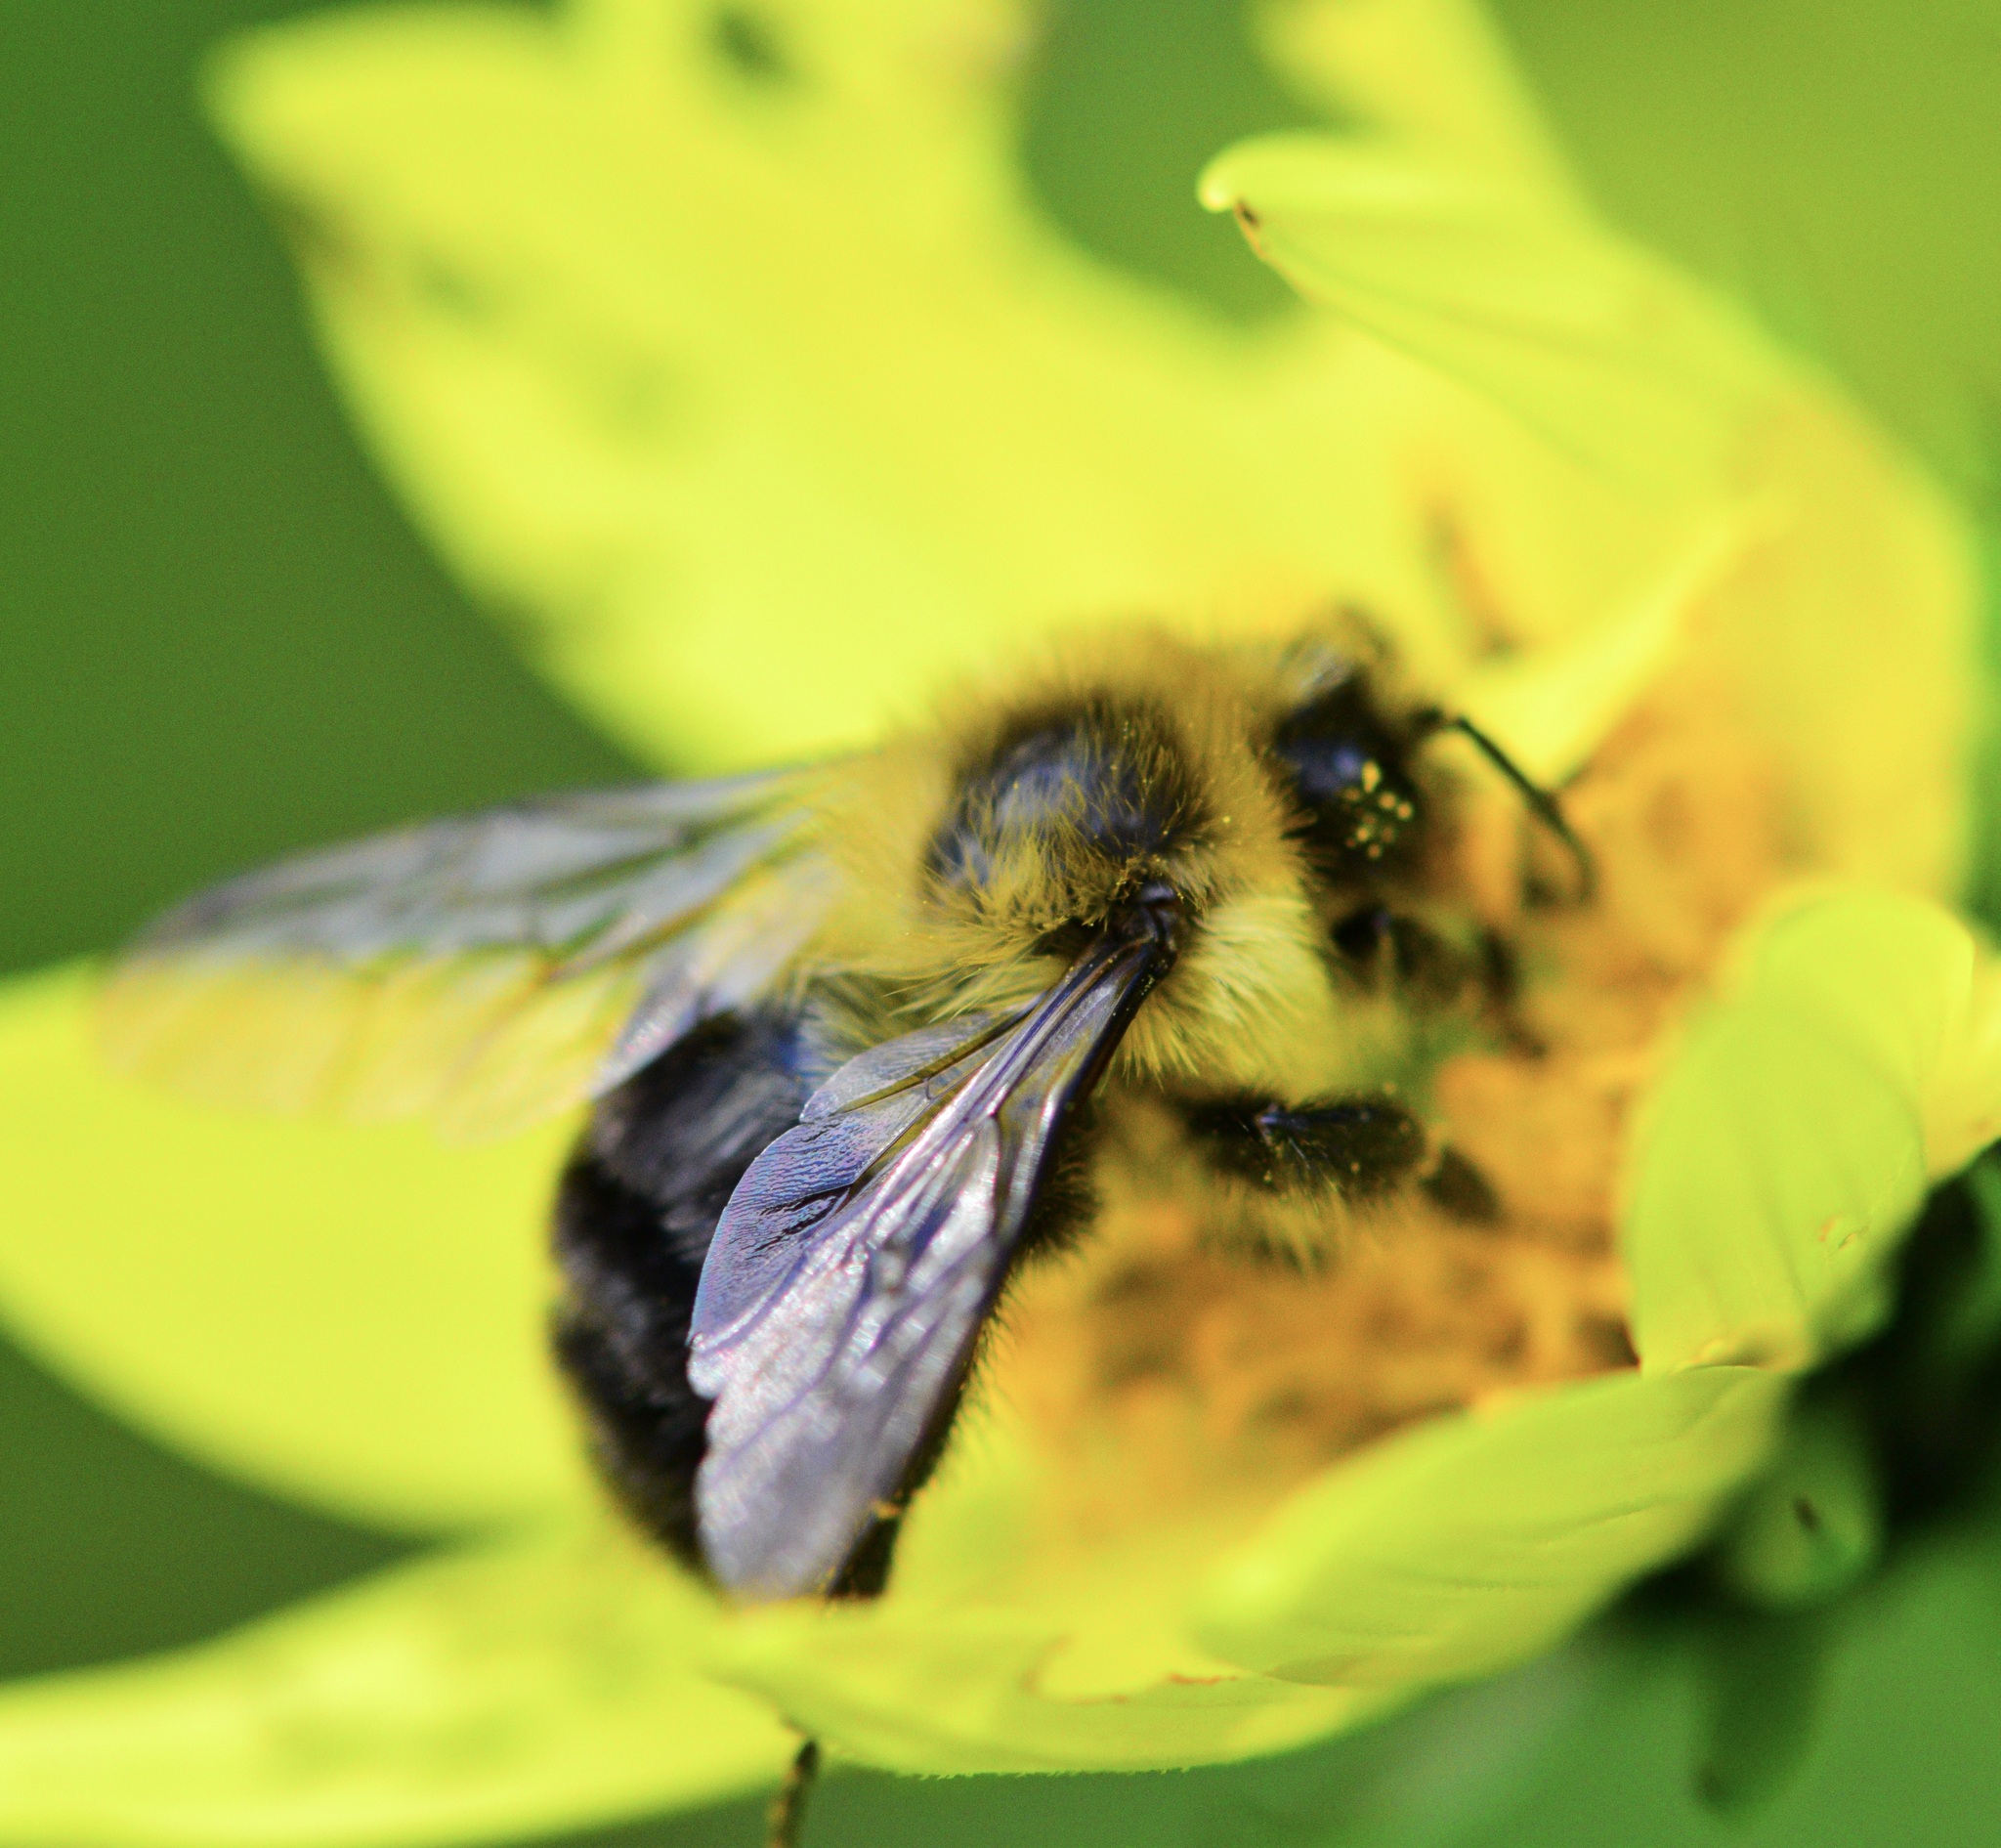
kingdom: Animalia
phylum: Arthropoda
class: Insecta
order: Hymenoptera
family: Apidae
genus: Bombus
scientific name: Bombus impatiens
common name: Common eastern bumble bee
